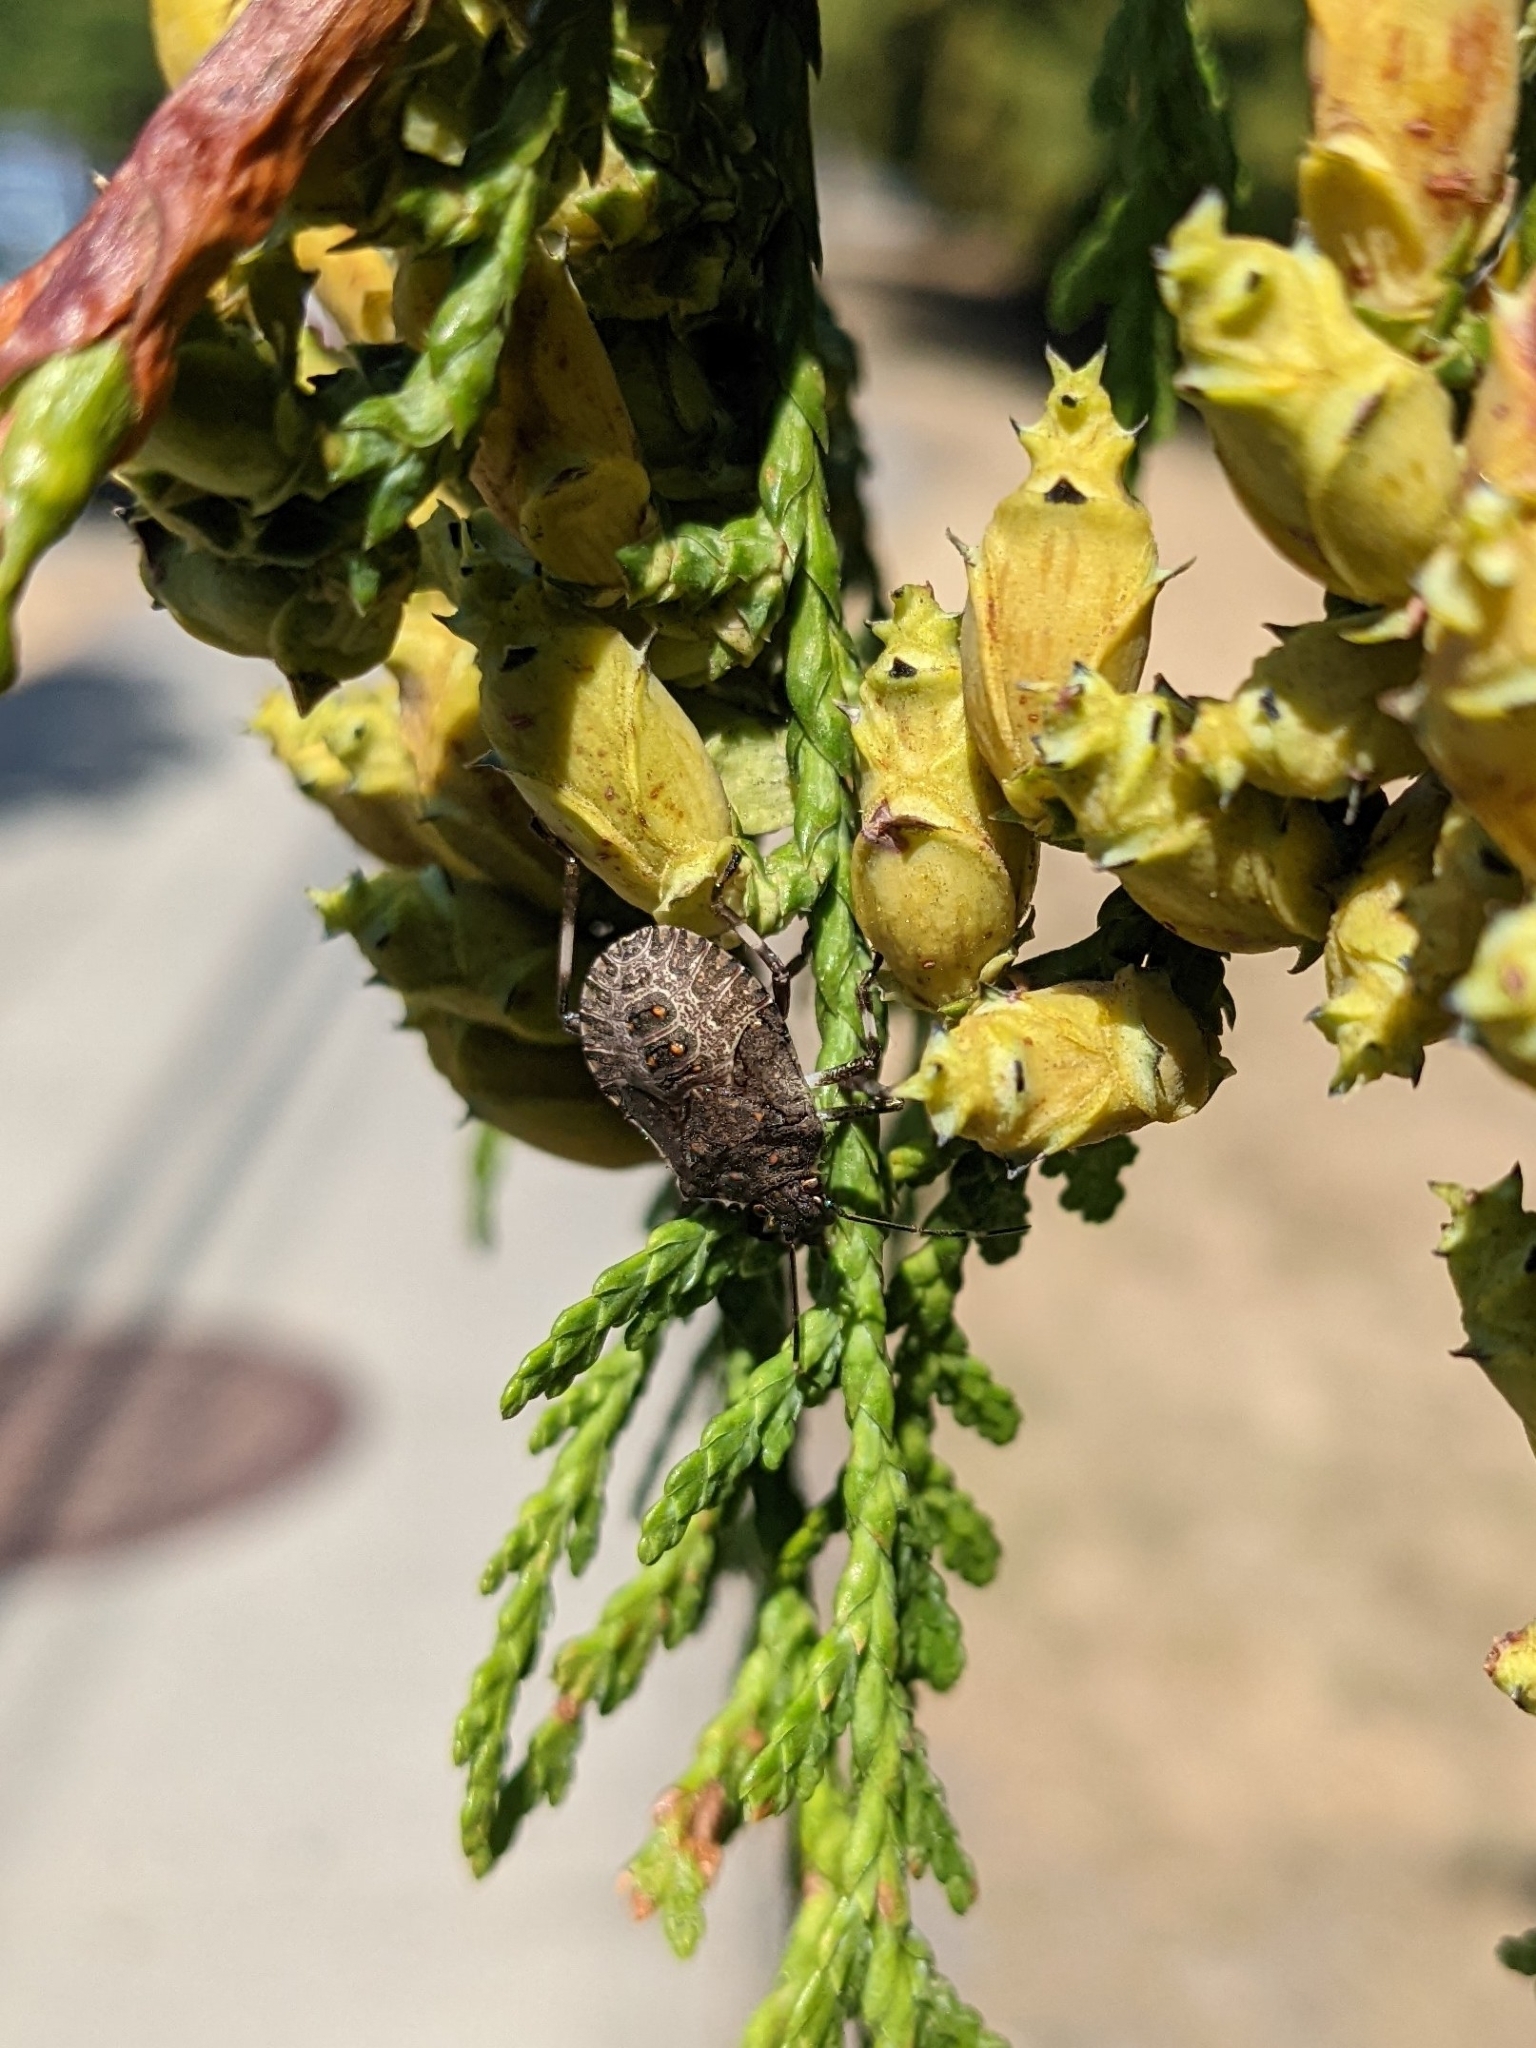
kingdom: Animalia
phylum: Arthropoda
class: Insecta
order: Hemiptera
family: Pentatomidae
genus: Halyomorpha
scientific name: Halyomorpha halys
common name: Brown marmorated stink bug
